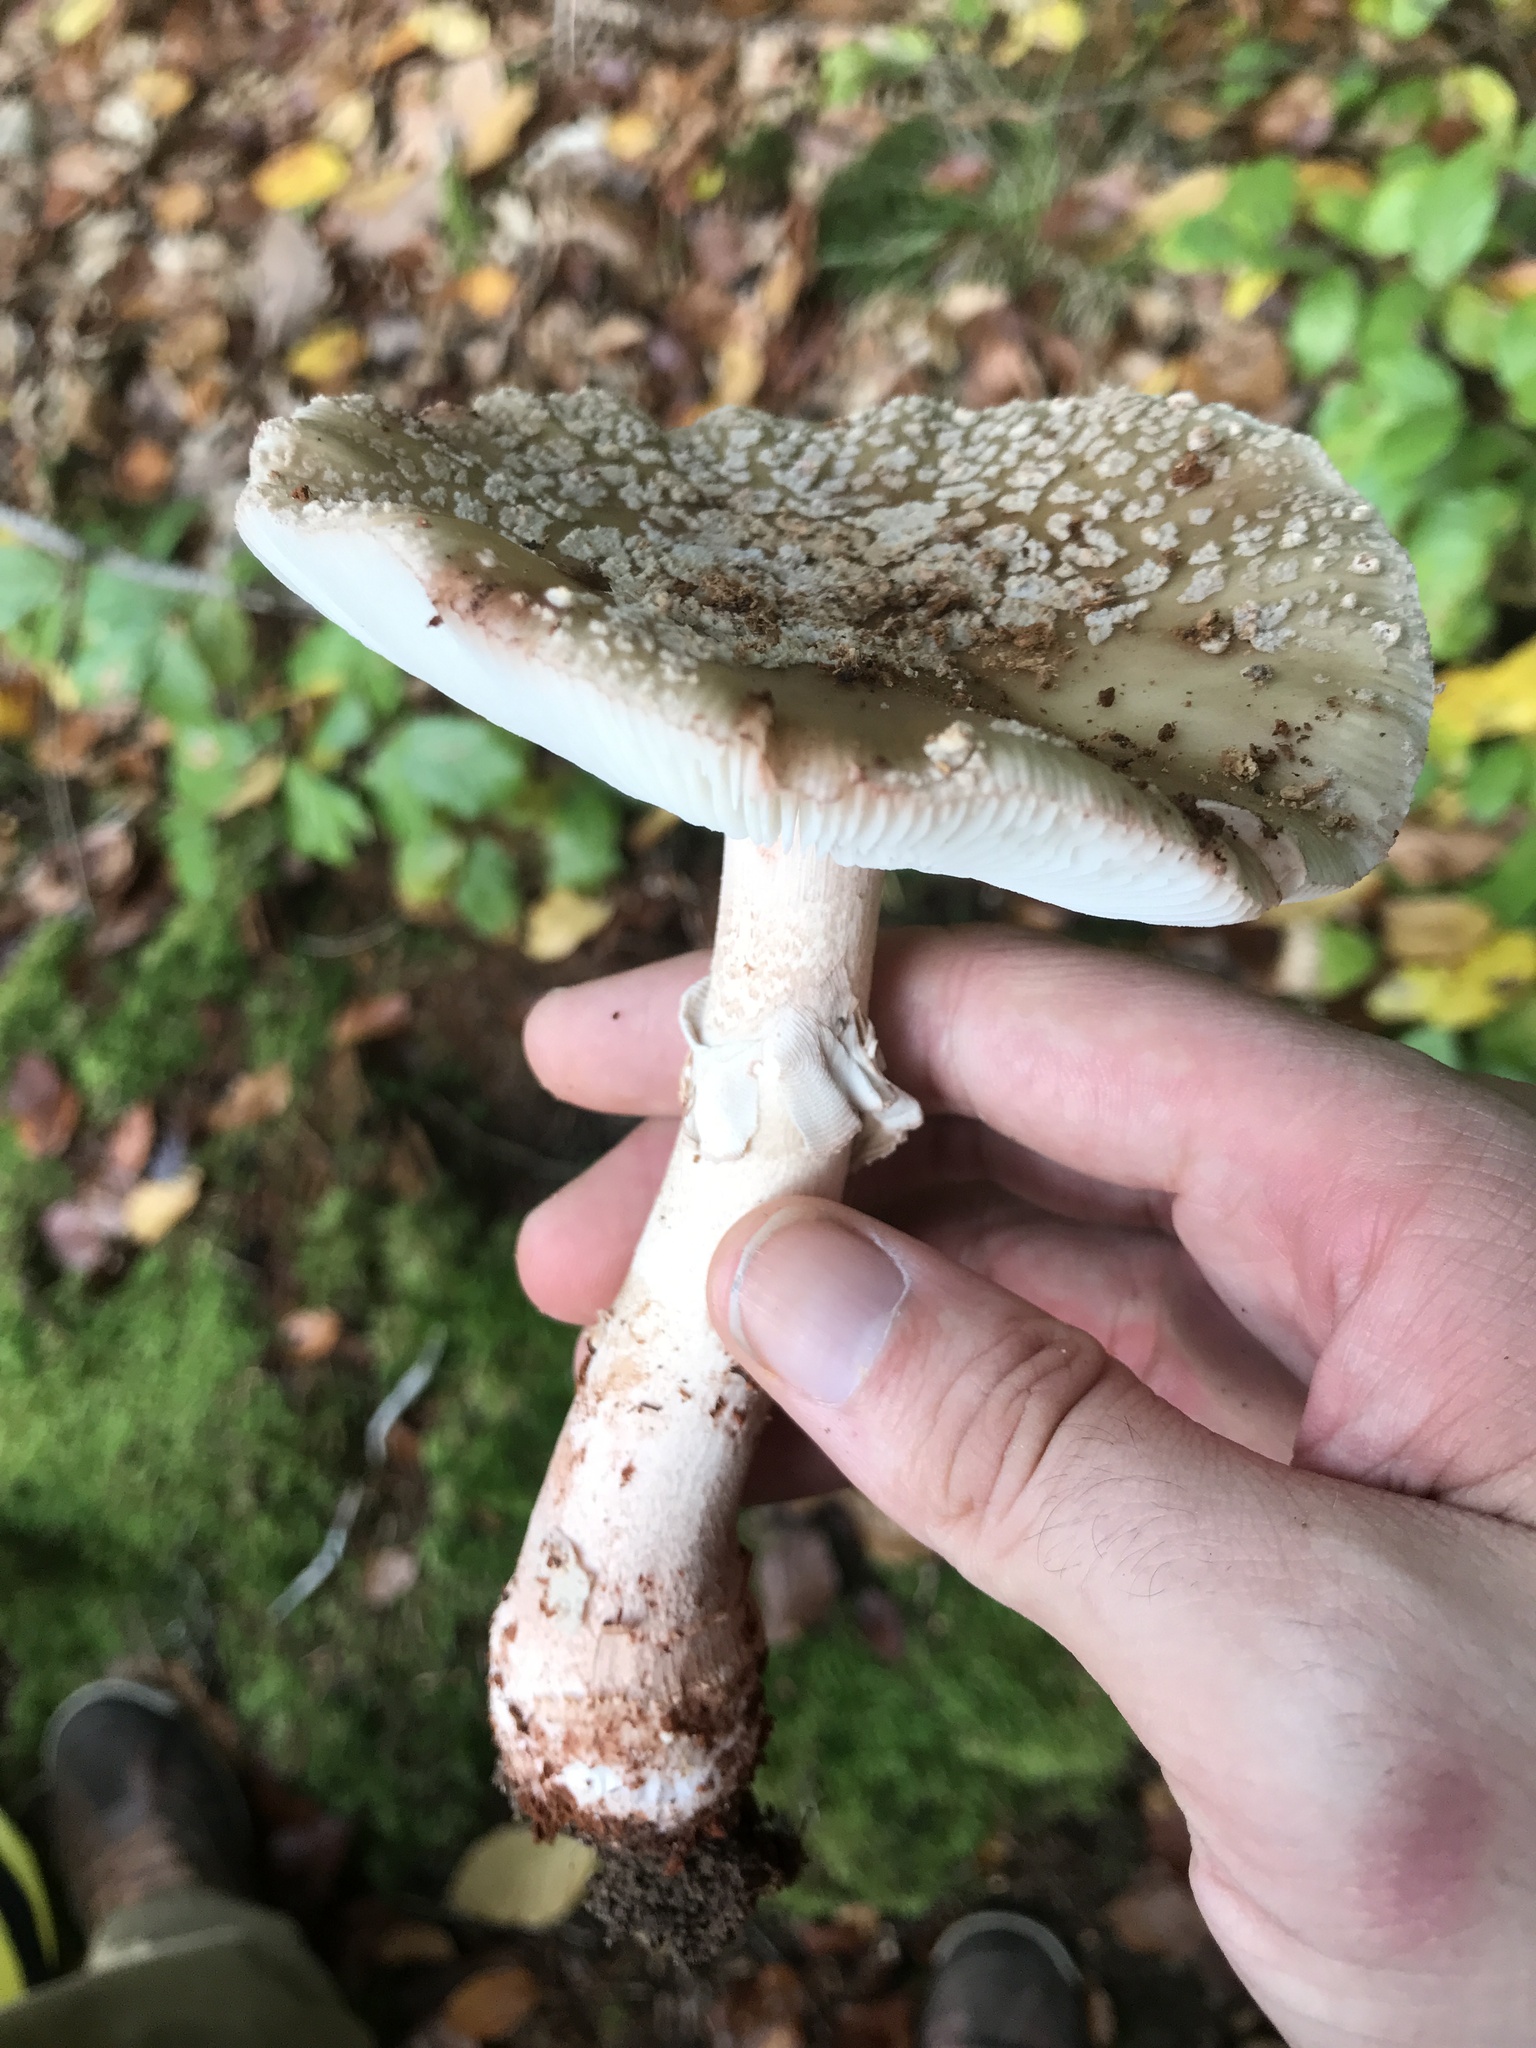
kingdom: Fungi
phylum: Basidiomycota
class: Agaricomycetes
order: Agaricales
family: Amanitaceae
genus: Amanita
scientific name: Amanita rubescens
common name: Blusher
